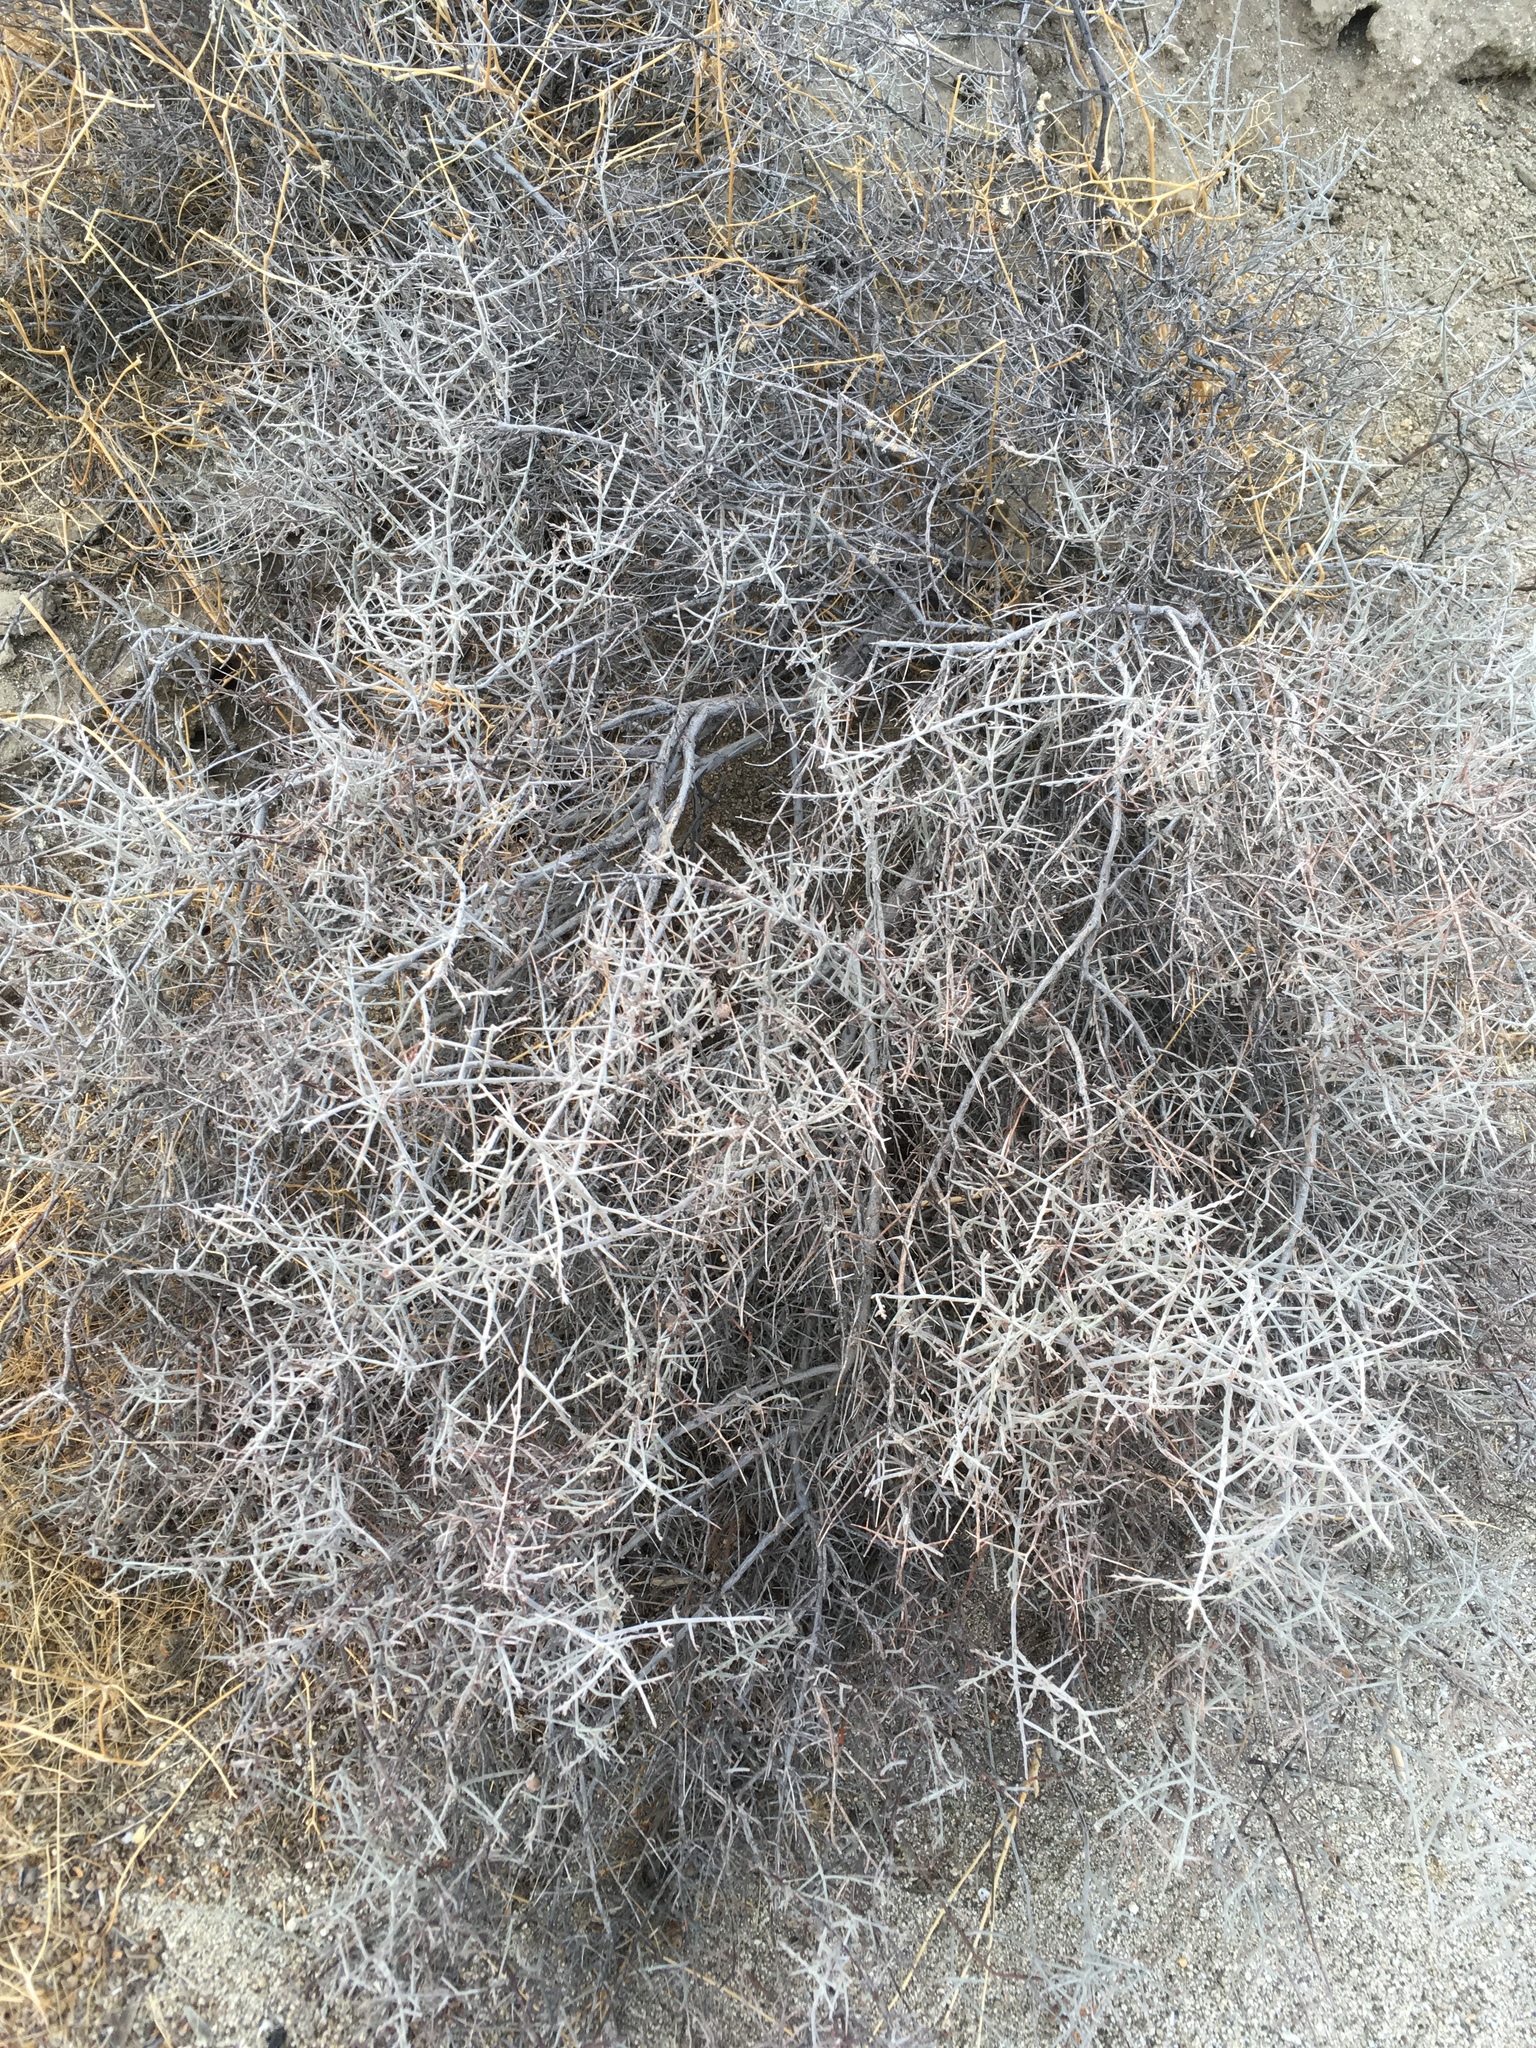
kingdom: Plantae
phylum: Tracheophyta
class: Magnoliopsida
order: Zygophyllales
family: Krameriaceae
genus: Krameria
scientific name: Krameria bicolor
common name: White ratany
